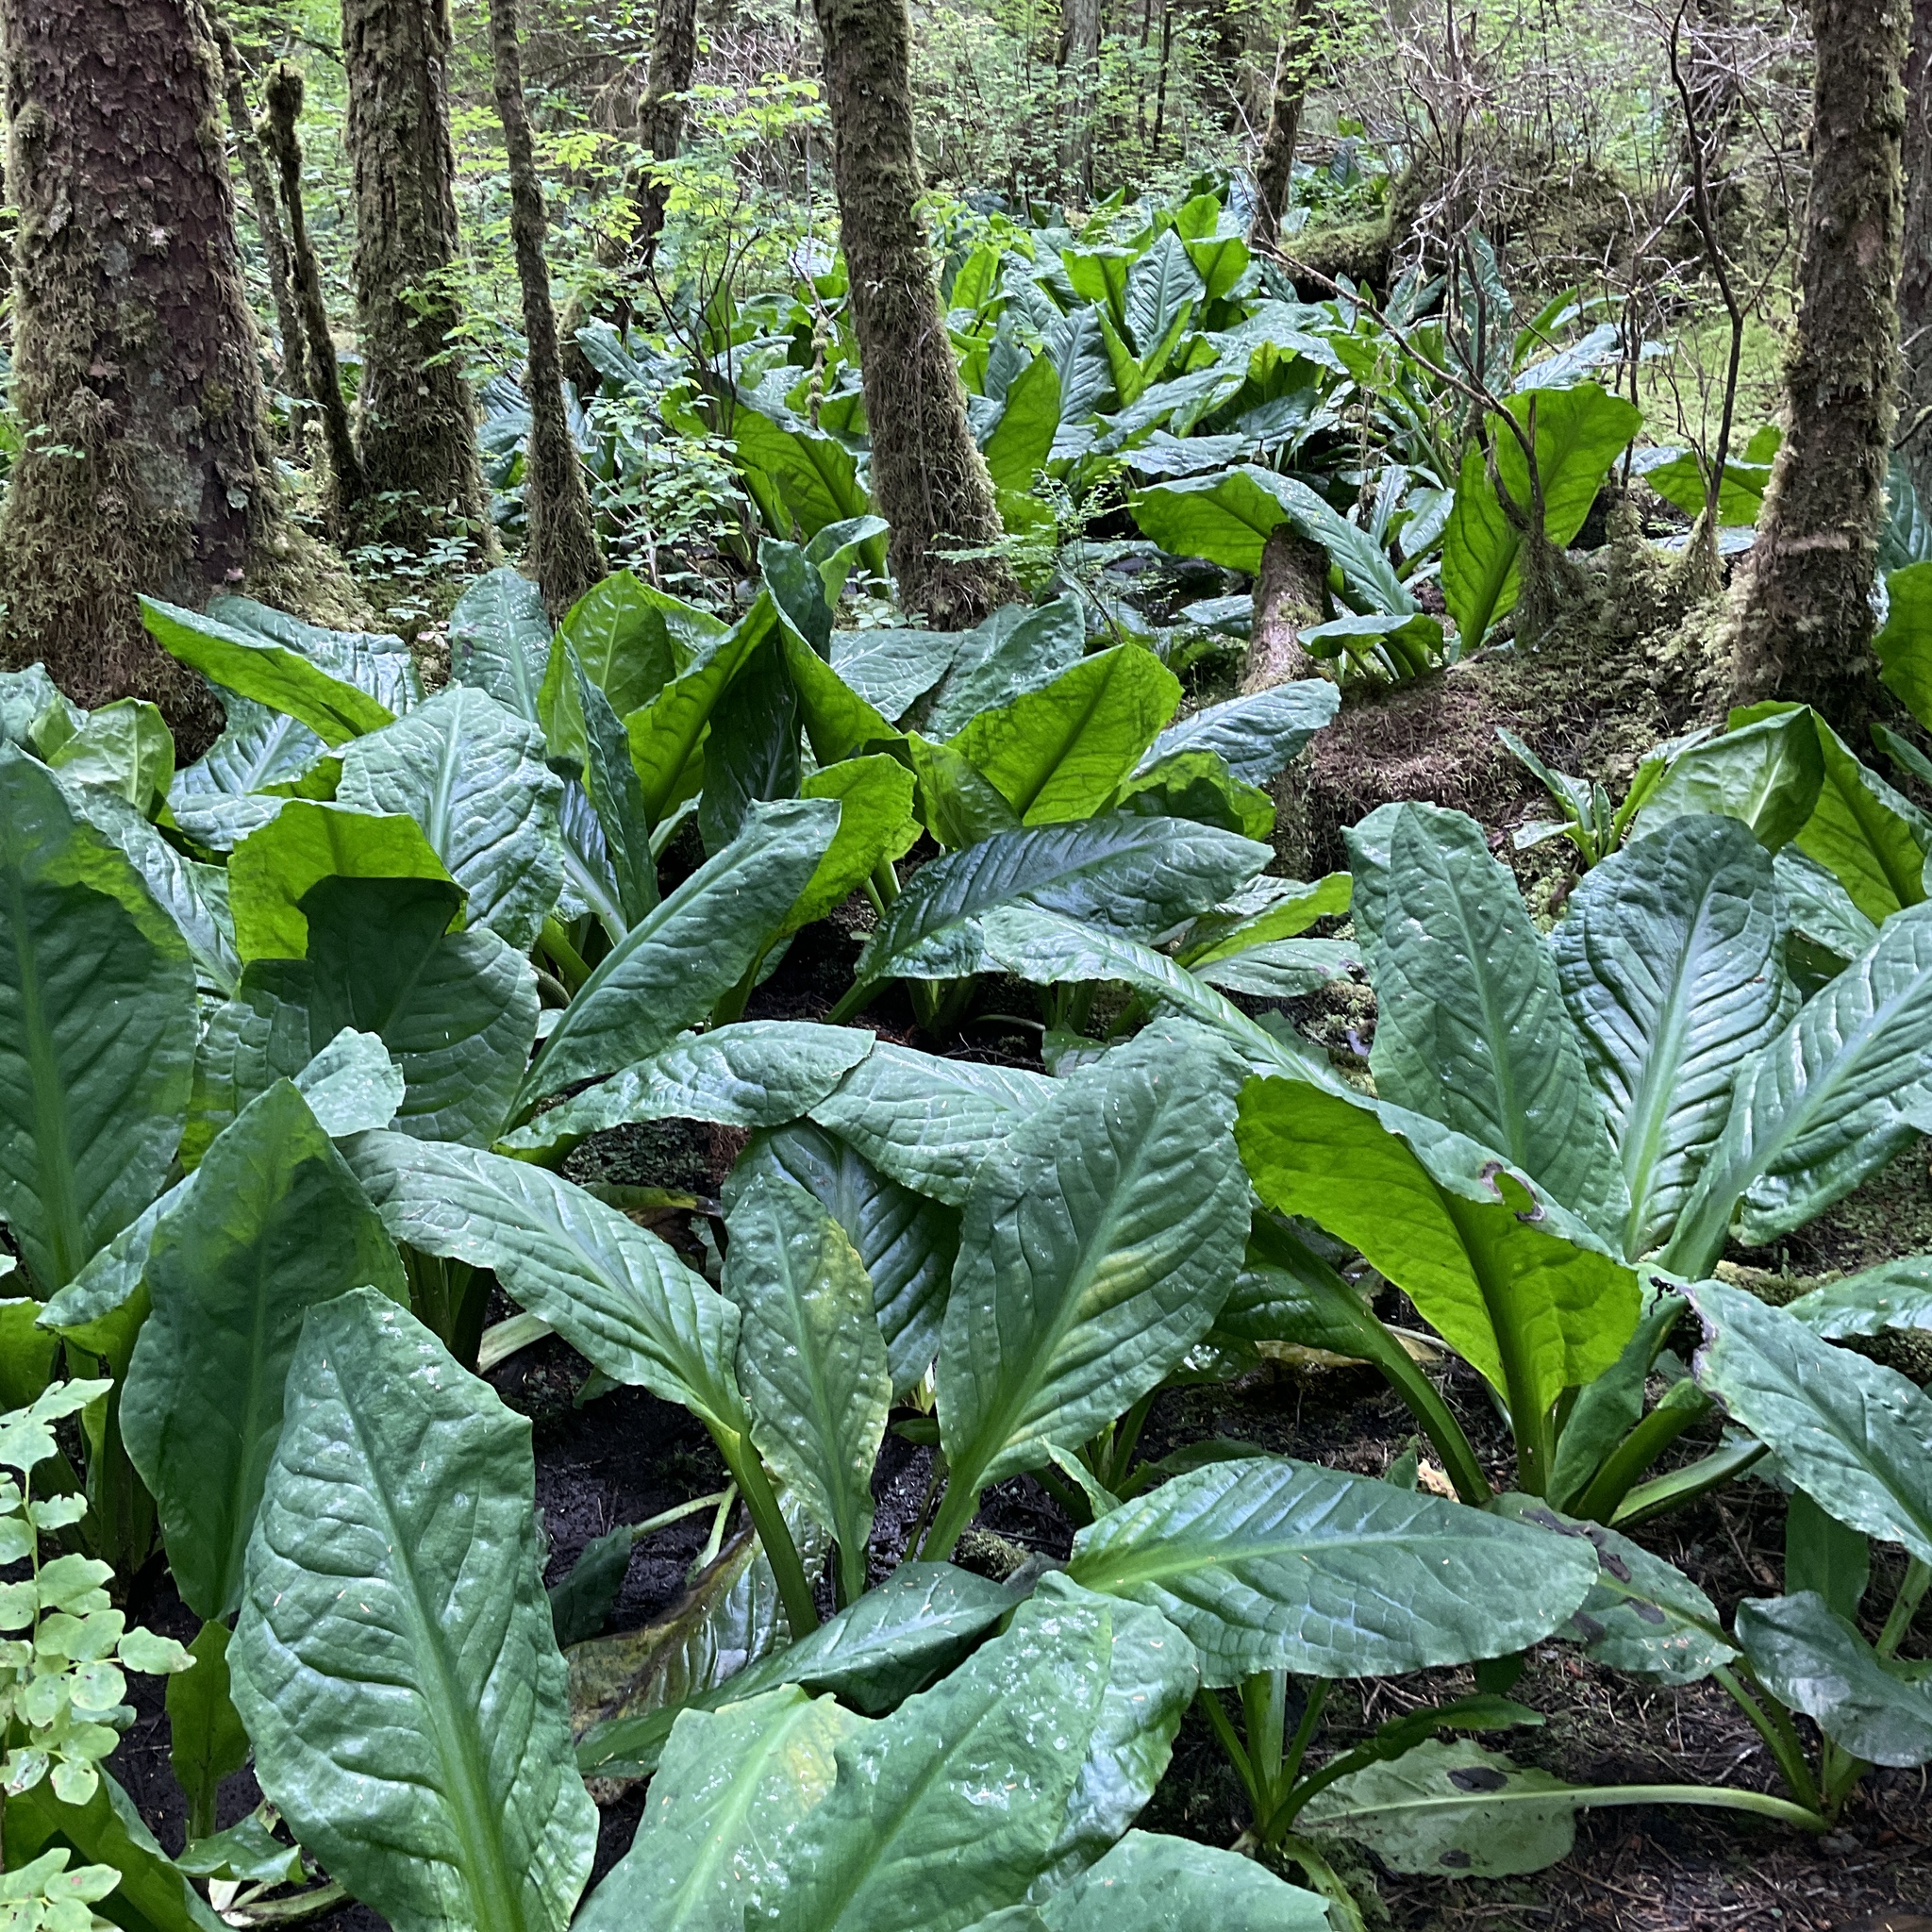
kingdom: Plantae
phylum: Tracheophyta
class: Liliopsida
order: Alismatales
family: Araceae
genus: Lysichiton
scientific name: Lysichiton americanus
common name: American skunk cabbage
